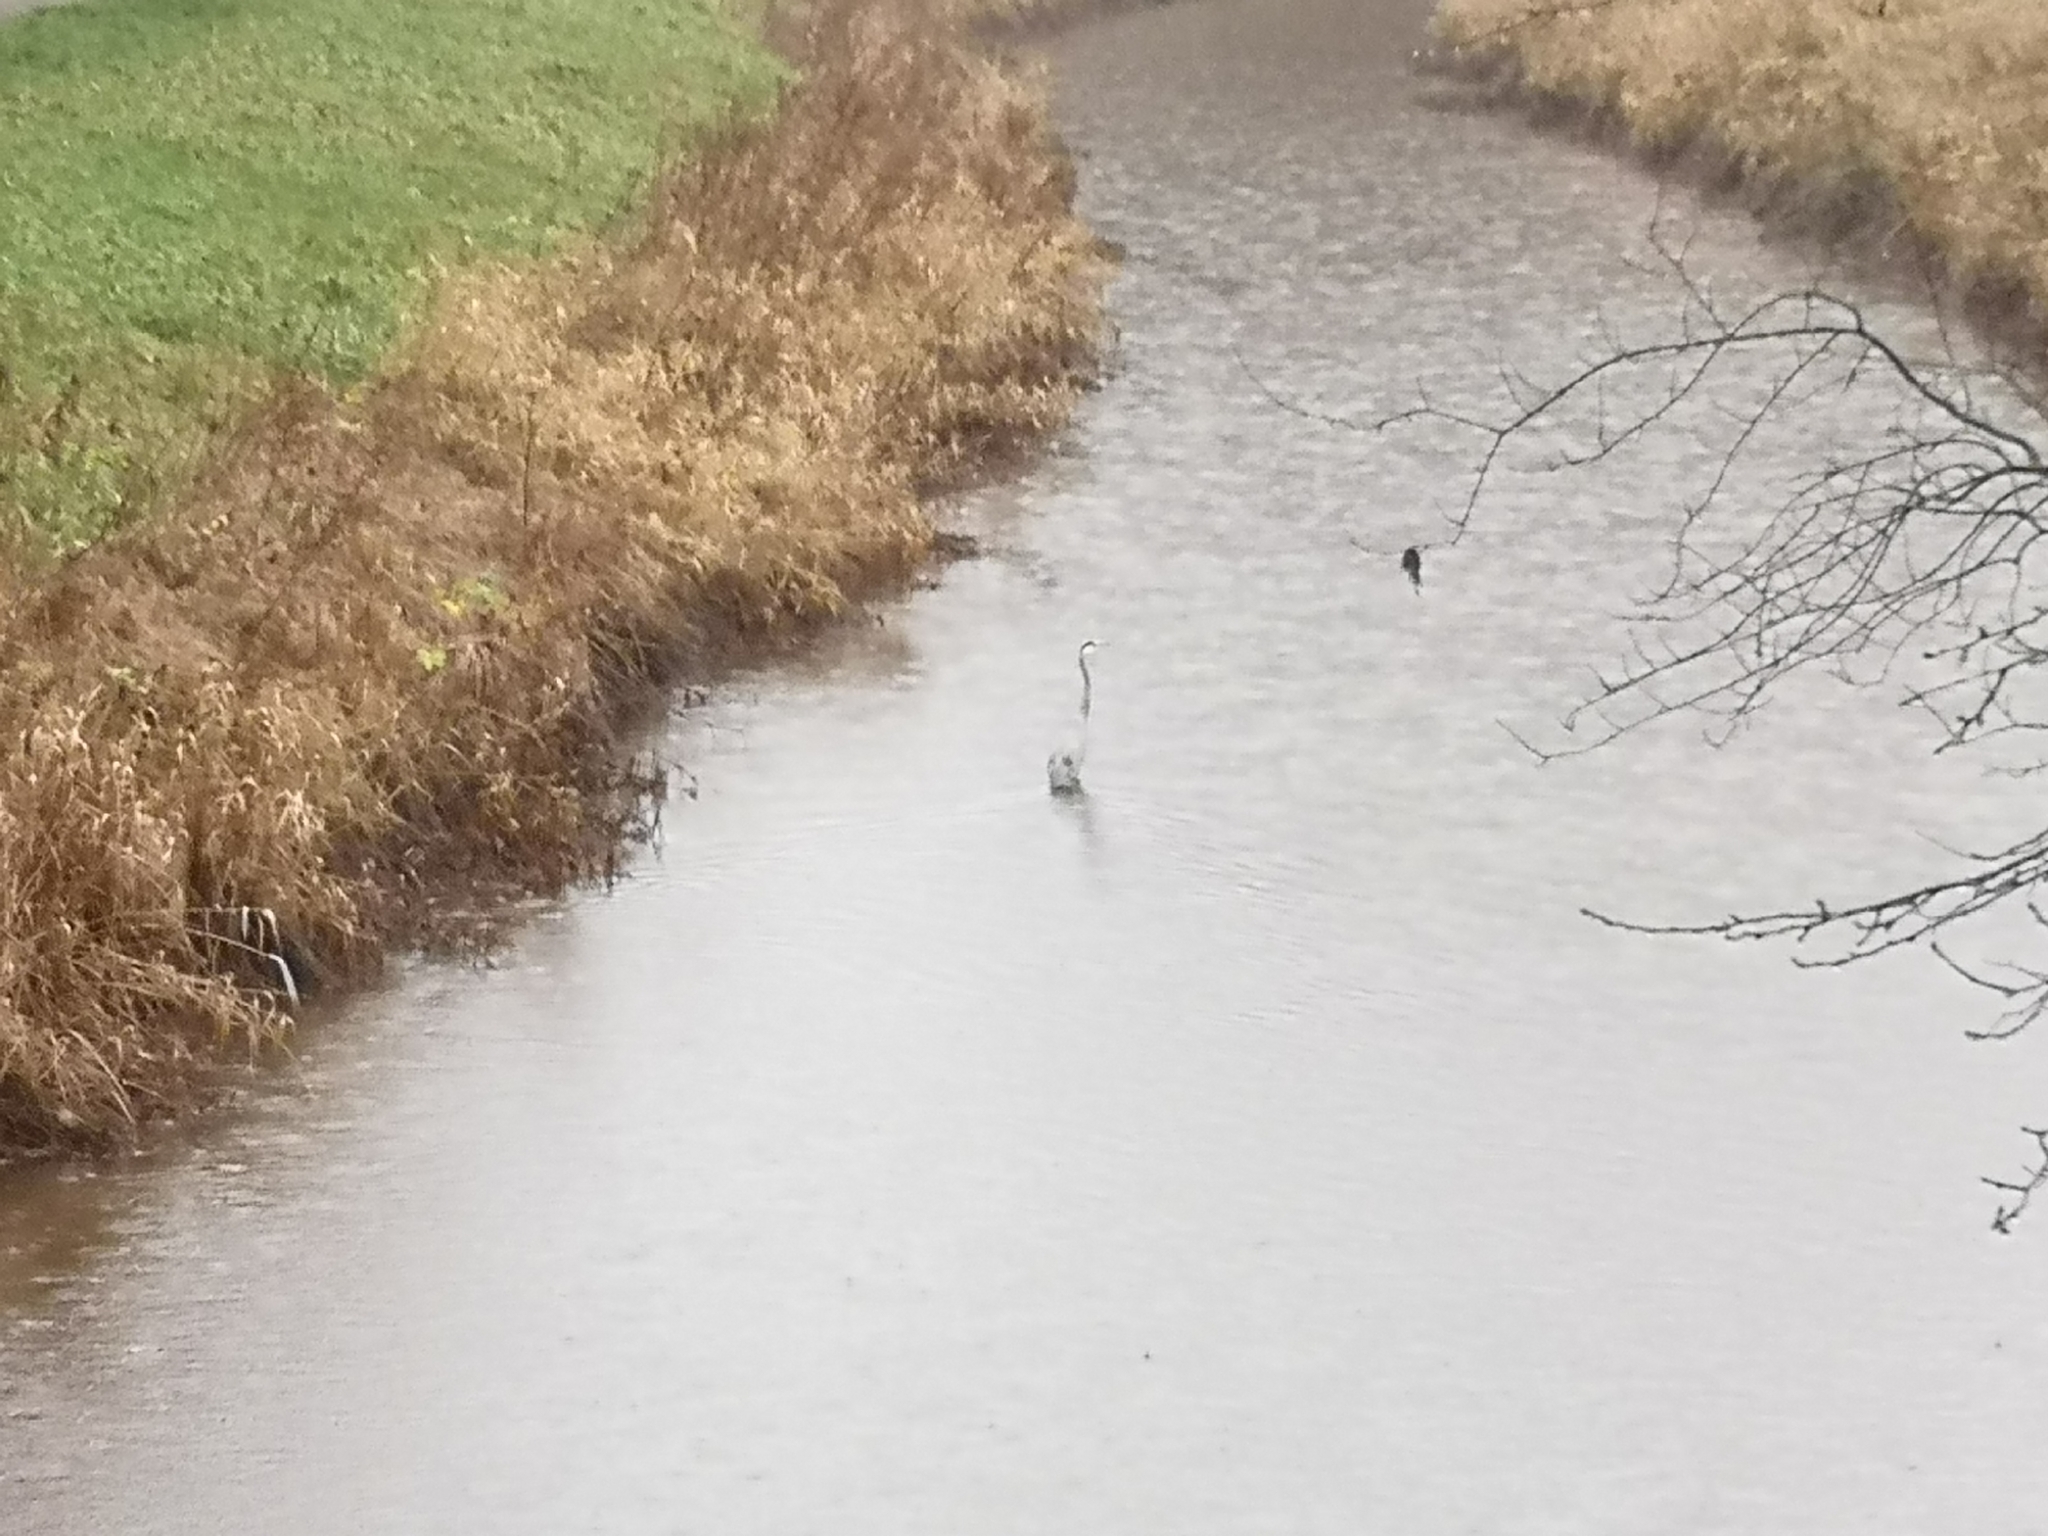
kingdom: Animalia
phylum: Chordata
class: Aves
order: Pelecaniformes
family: Ardeidae
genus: Ardea
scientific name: Ardea cinerea
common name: Grey heron
